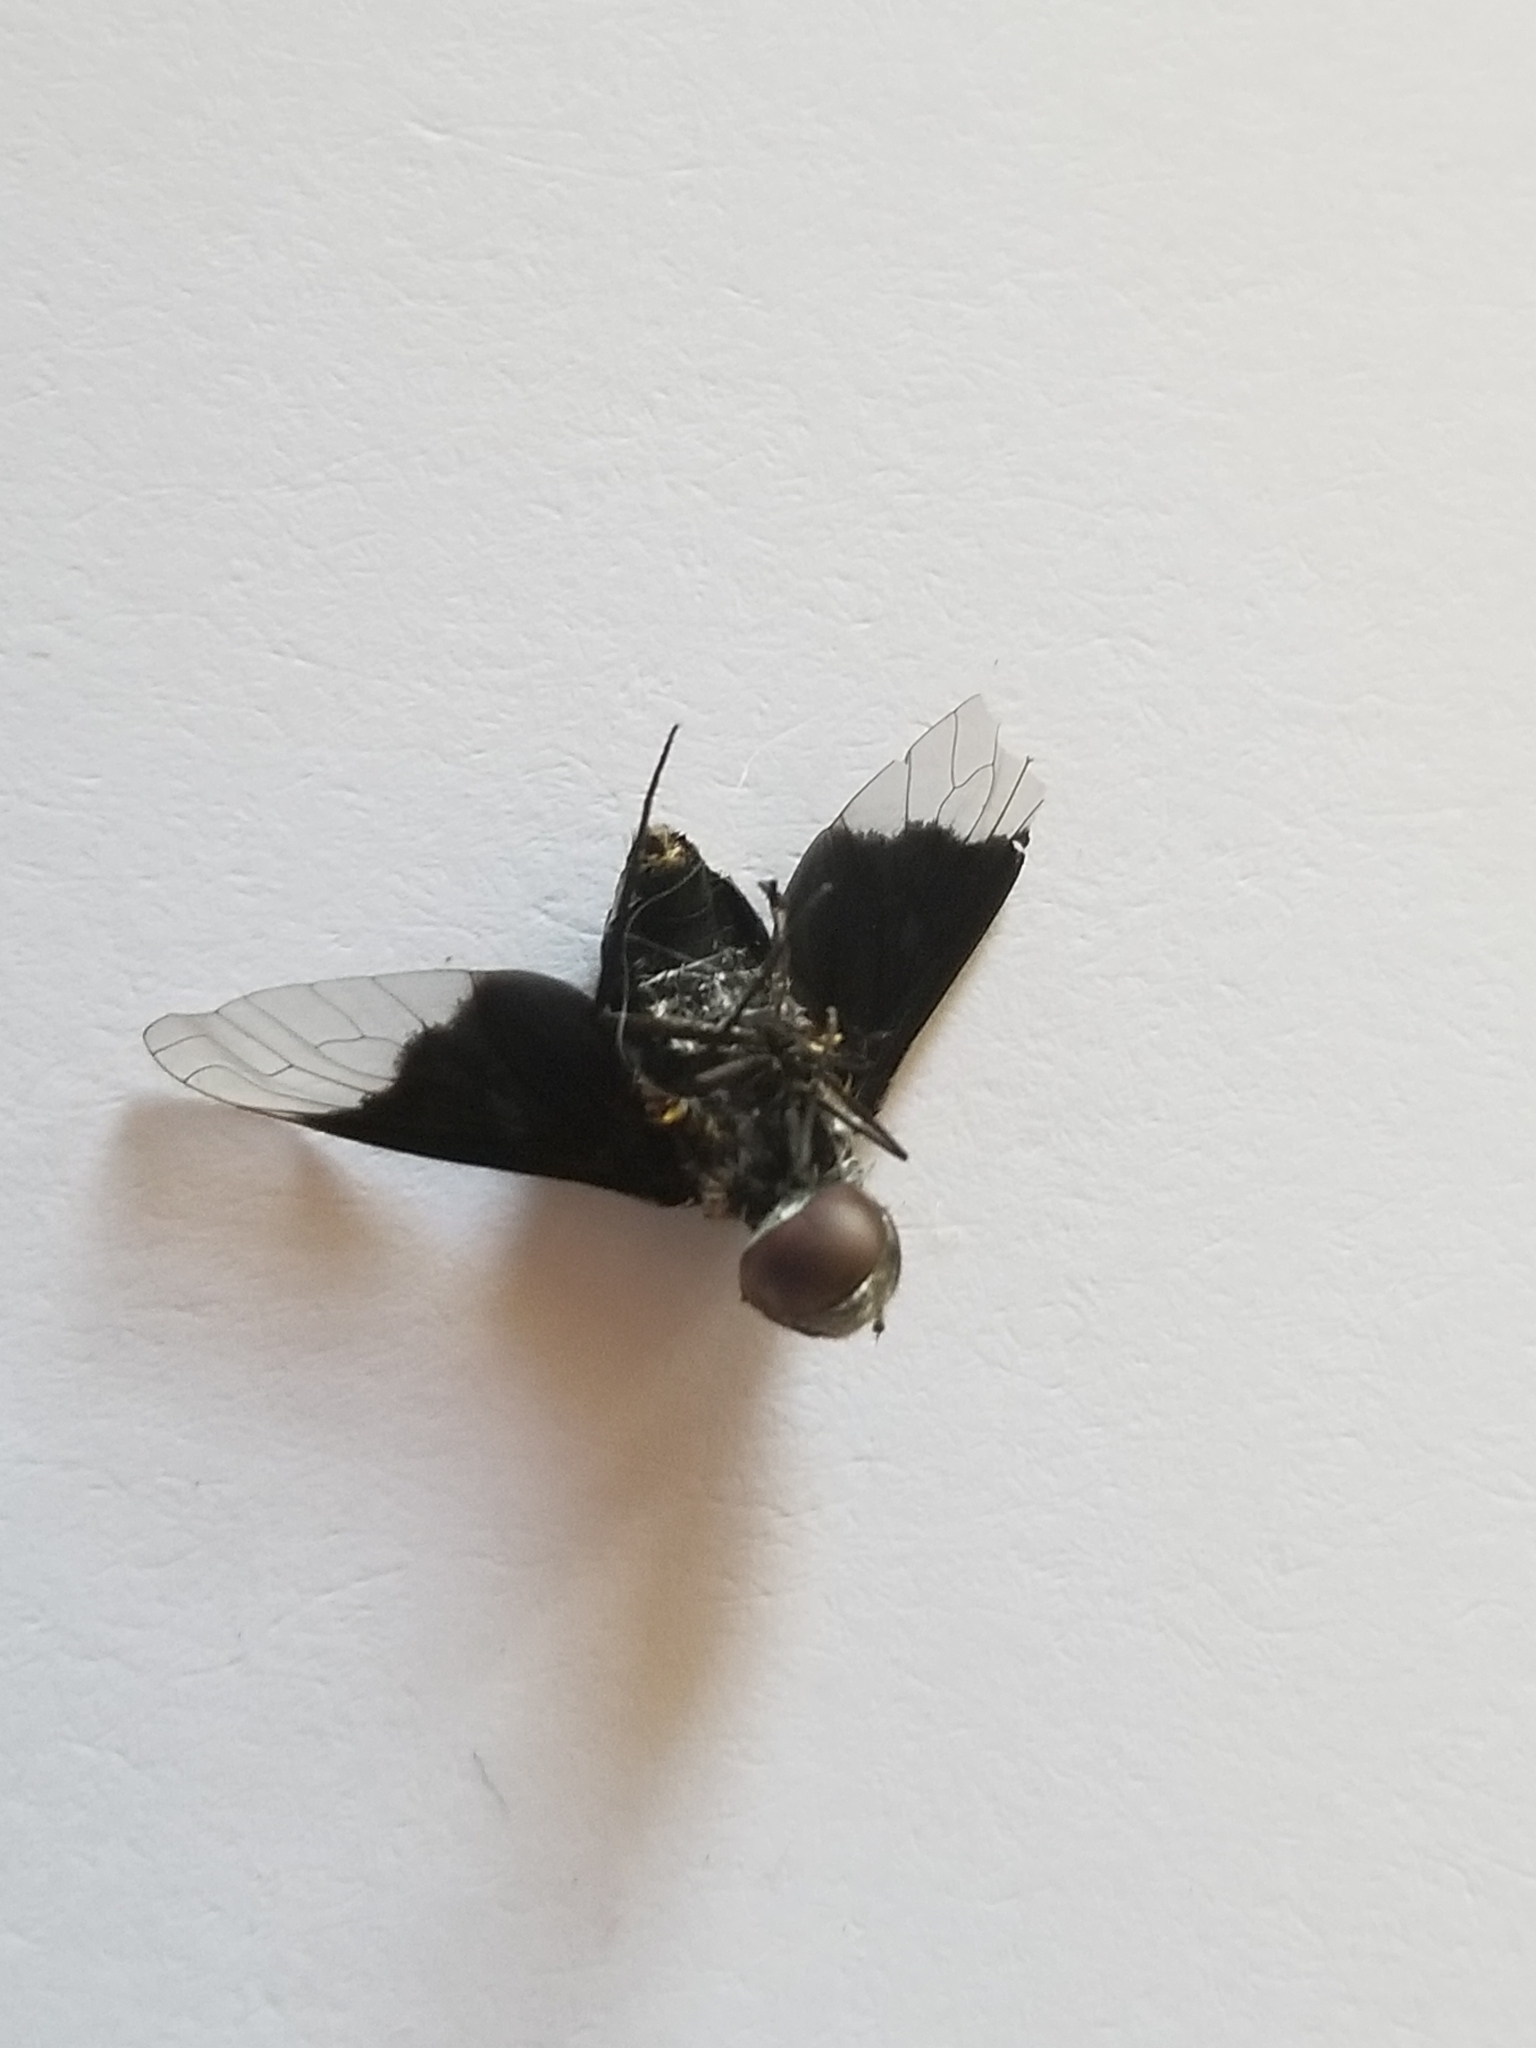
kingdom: Animalia
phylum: Arthropoda
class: Insecta
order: Diptera
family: Bombyliidae
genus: Ins
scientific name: Ins celeris
